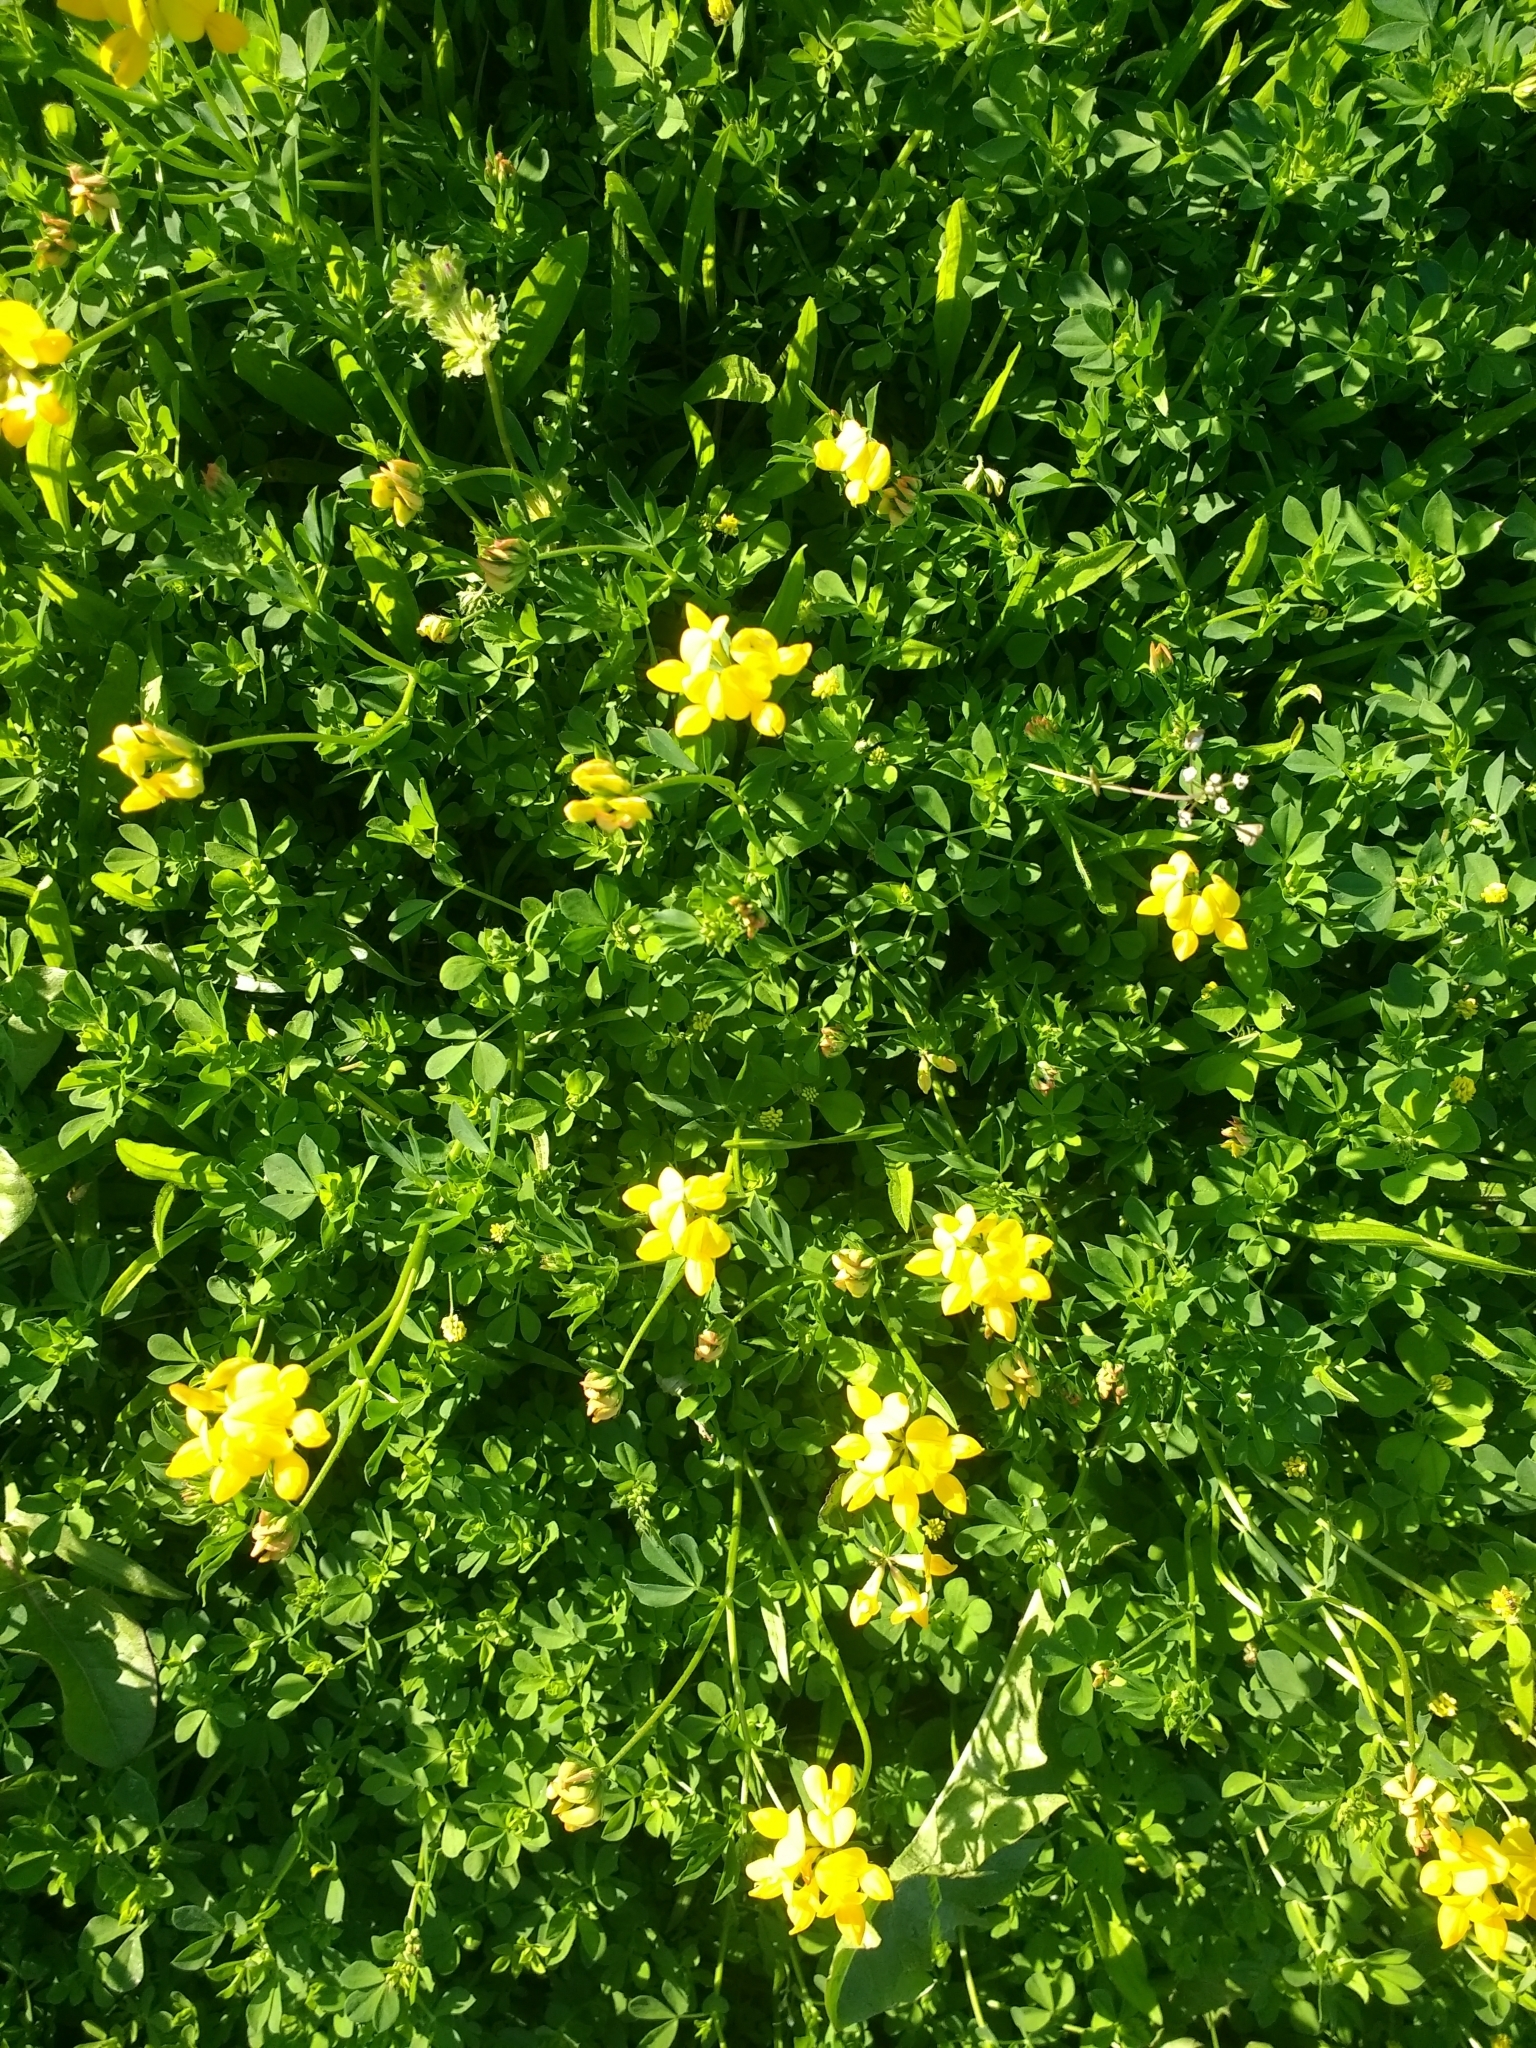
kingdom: Plantae
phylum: Tracheophyta
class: Magnoliopsida
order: Fabales
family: Fabaceae
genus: Lotus
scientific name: Lotus corniculatus
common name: Common bird's-foot-trefoil
